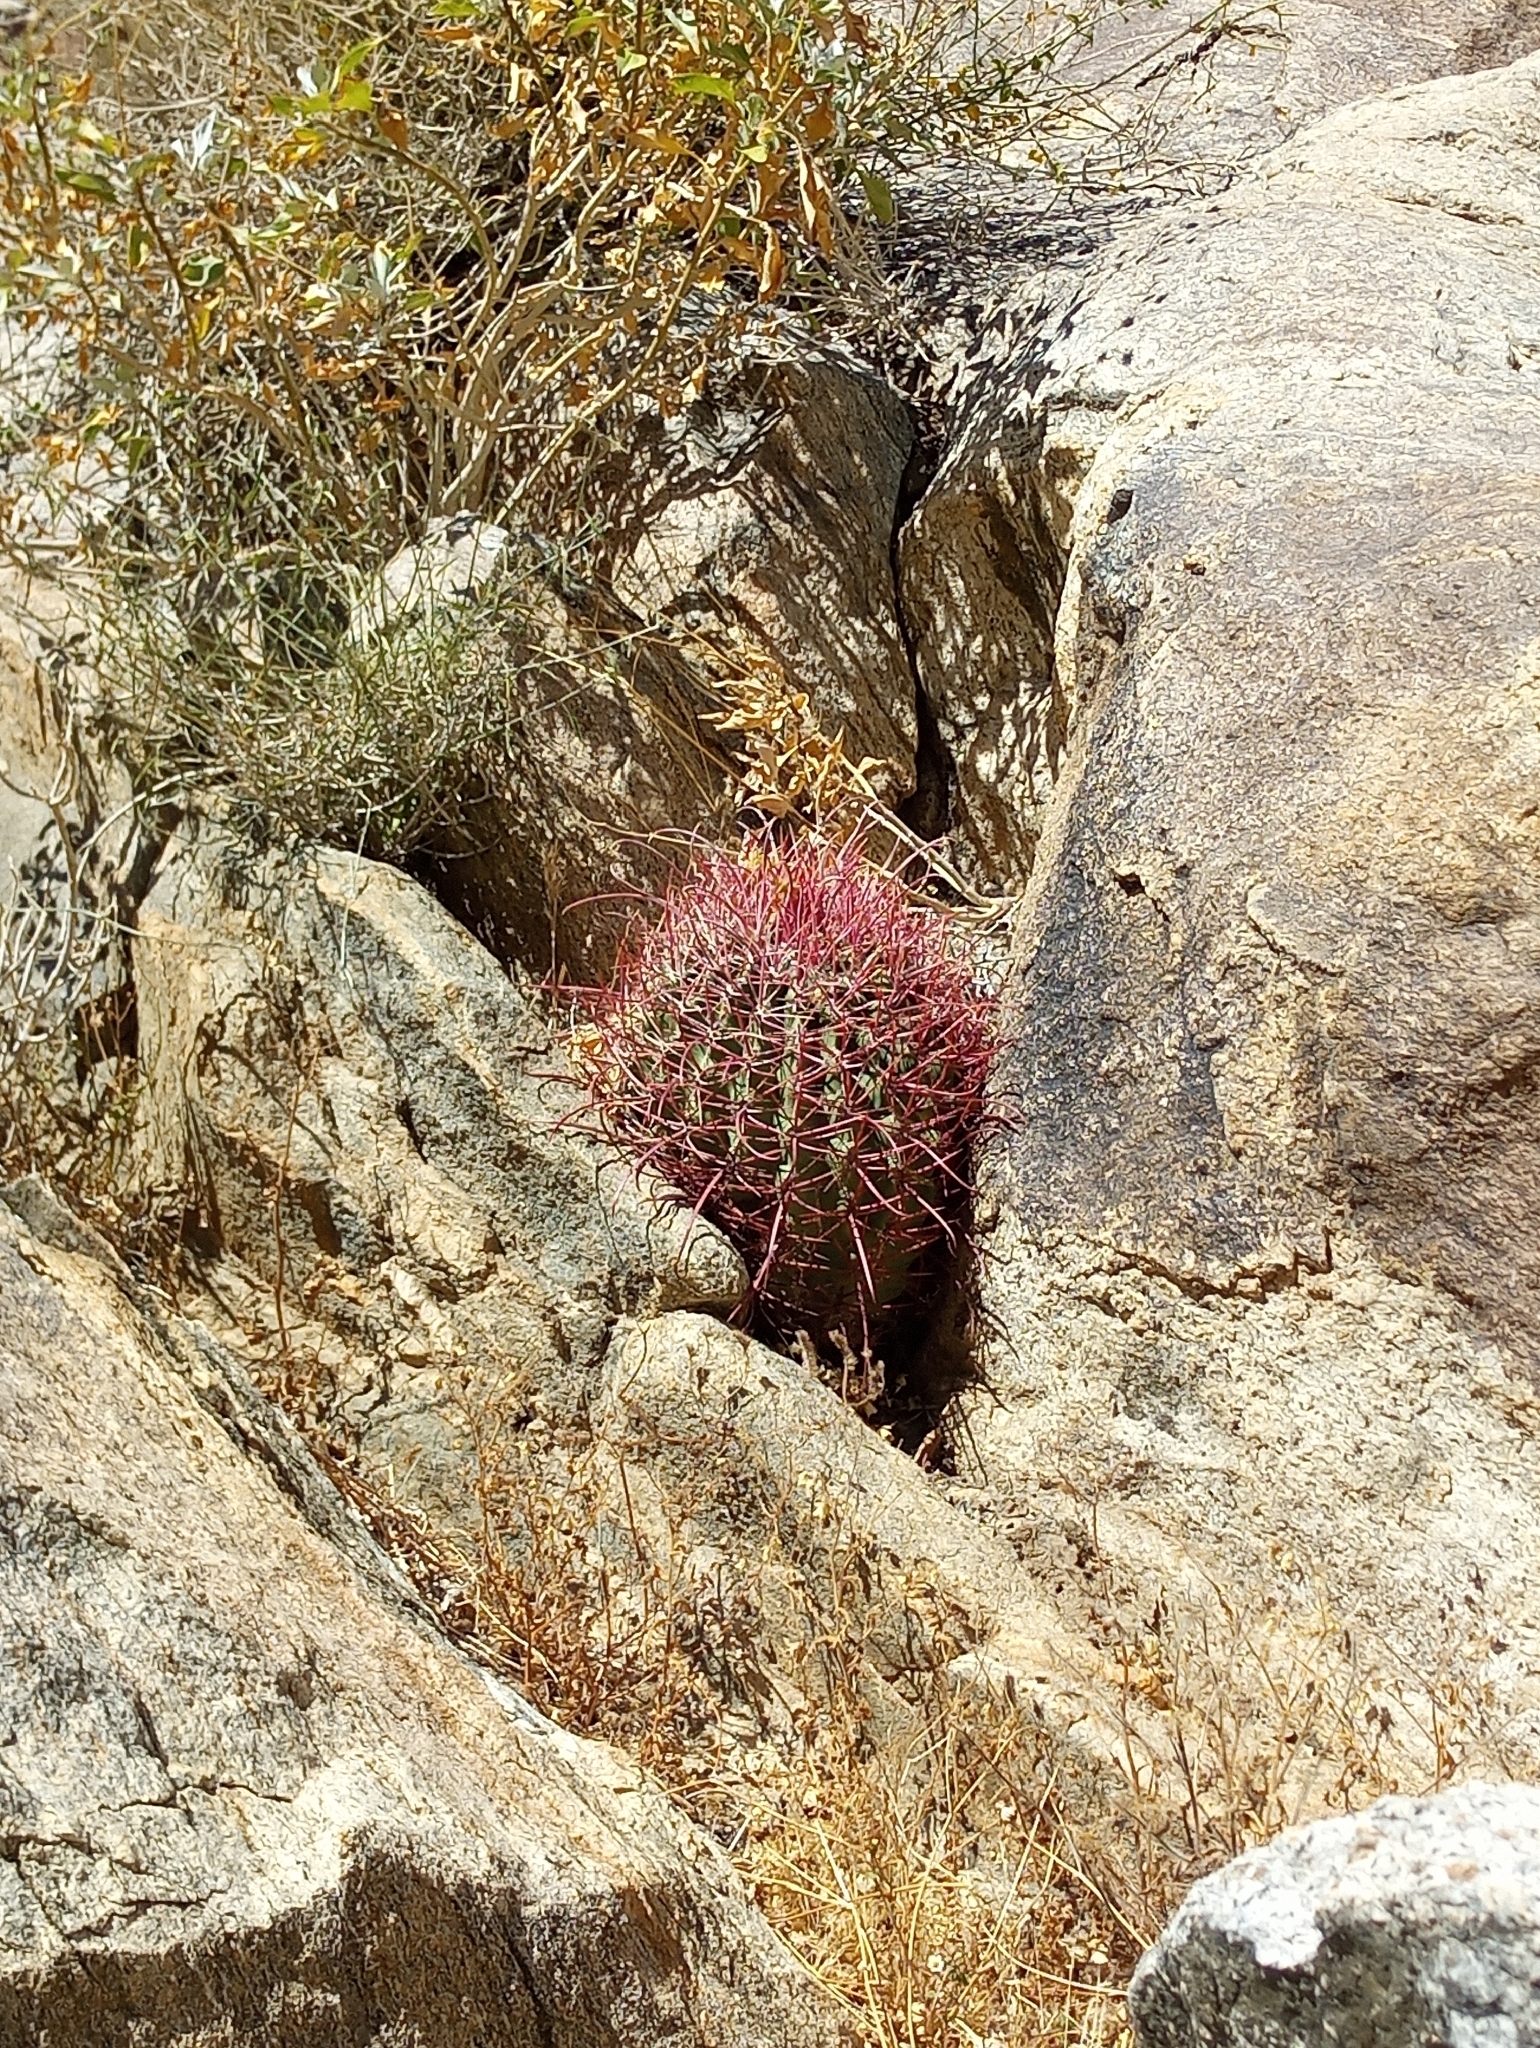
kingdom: Plantae
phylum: Tracheophyta
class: Magnoliopsida
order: Caryophyllales
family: Cactaceae
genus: Ferocactus
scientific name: Ferocactus cylindraceus
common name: California barrel cactus
